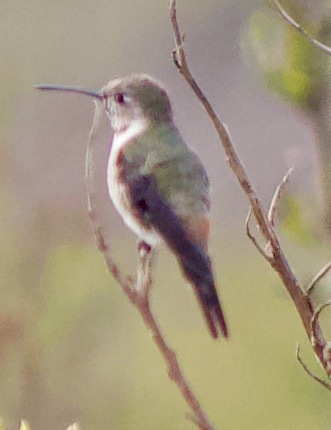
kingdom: Animalia
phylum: Chordata
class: Aves
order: Apodiformes
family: Trochilidae
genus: Rhodopis
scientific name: Rhodopis vesper
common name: Oasis hummingbird
